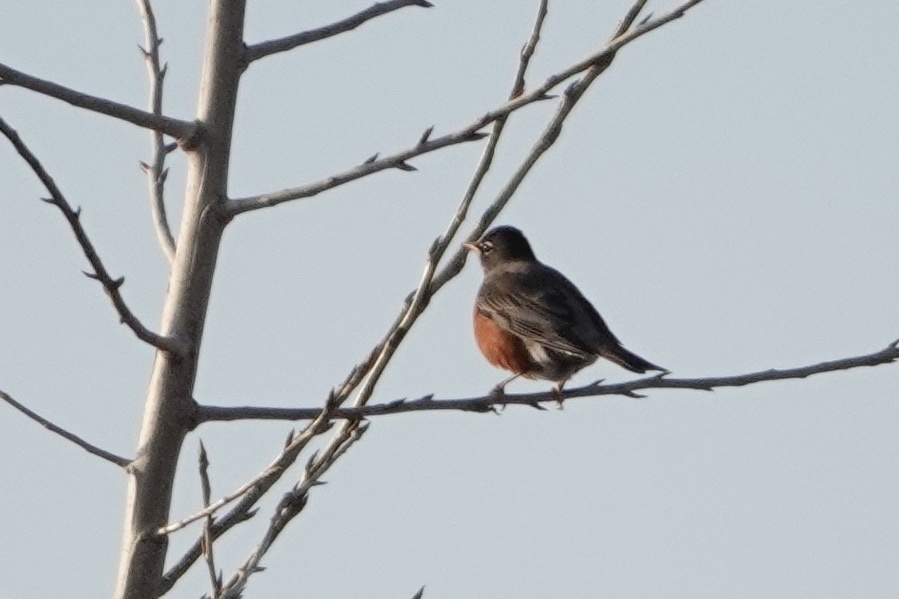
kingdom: Animalia
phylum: Chordata
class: Aves
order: Passeriformes
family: Turdidae
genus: Turdus
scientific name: Turdus migratorius
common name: American robin
